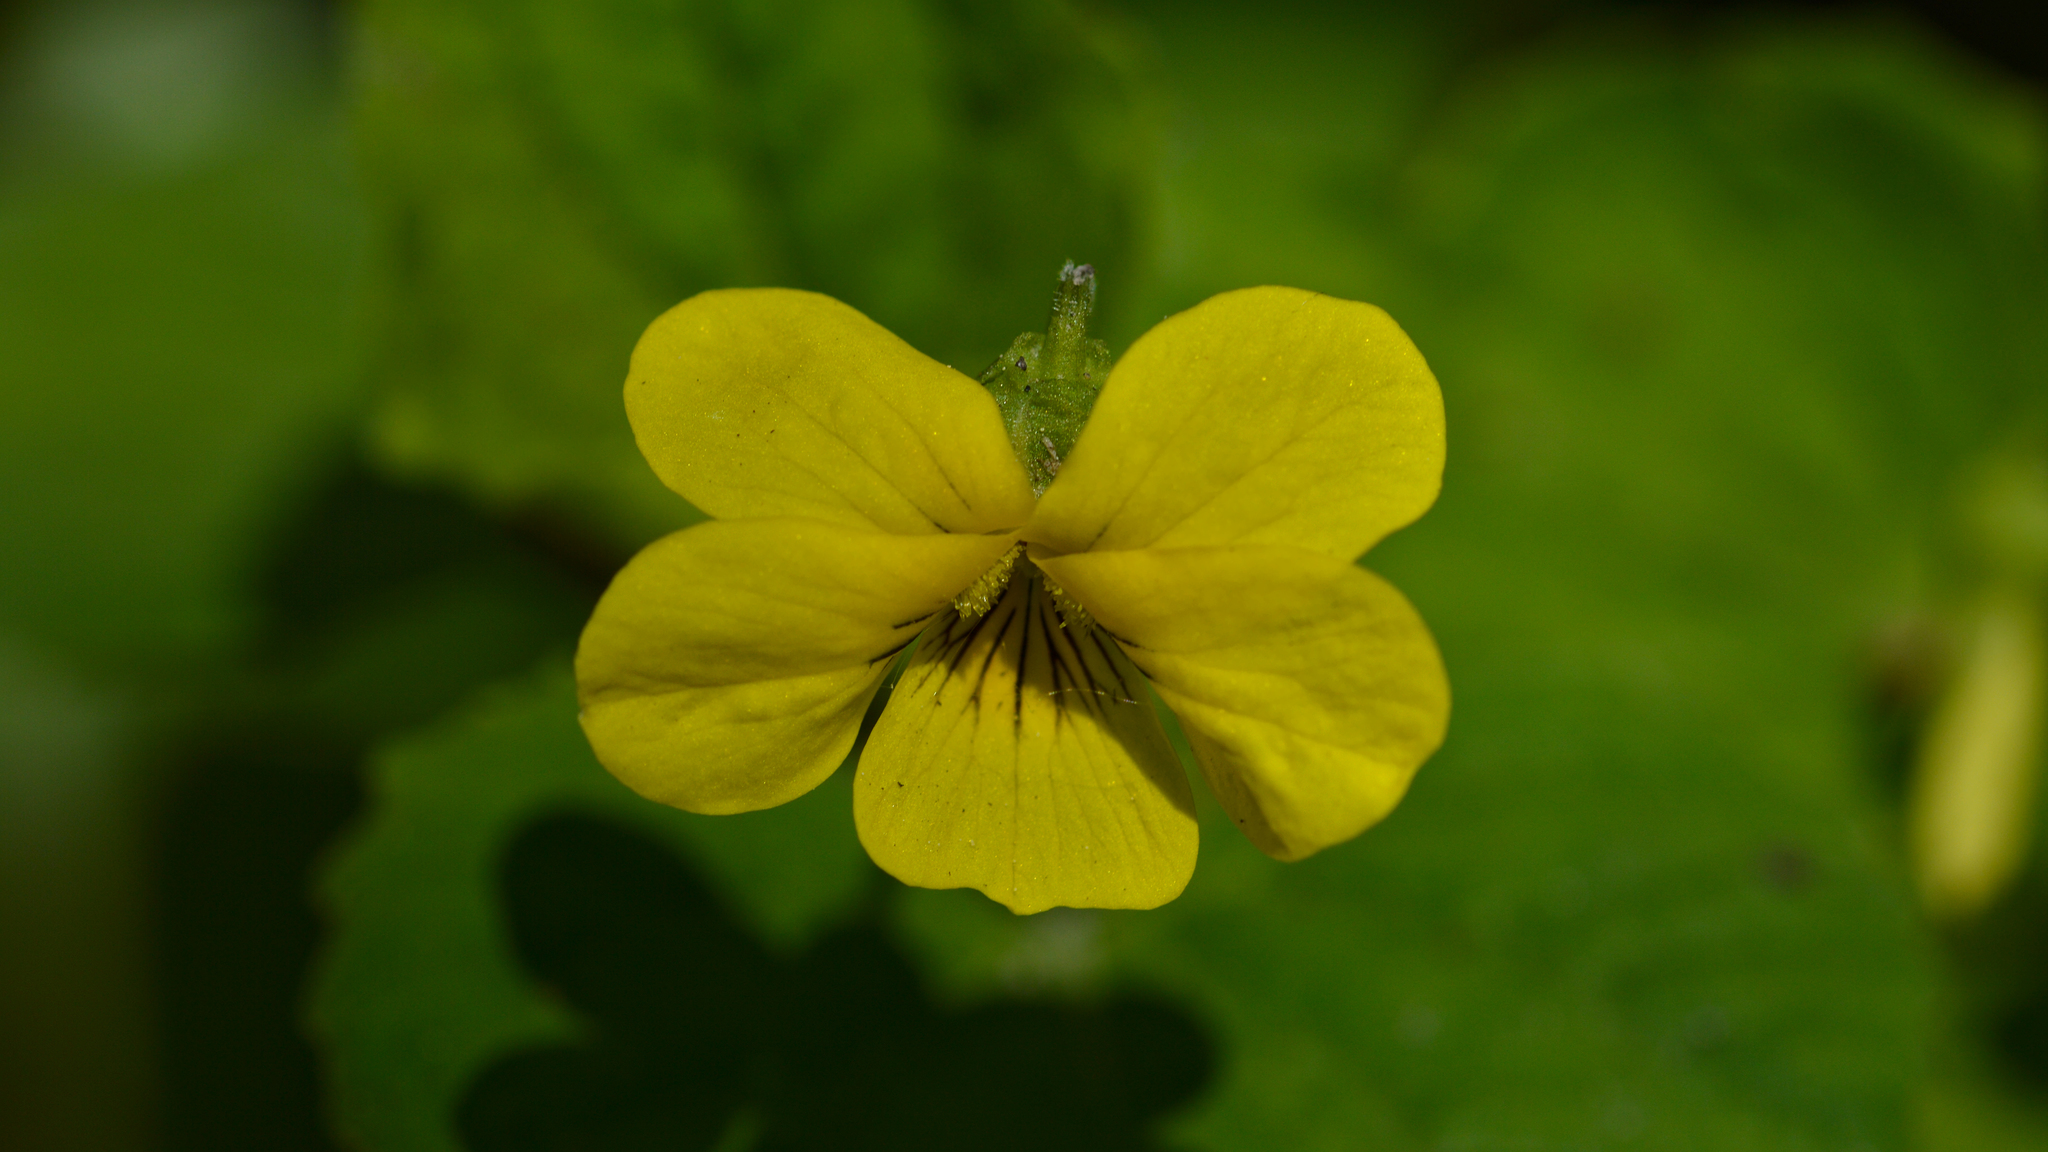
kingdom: Plantae
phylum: Tracheophyta
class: Magnoliopsida
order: Malpighiales
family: Violaceae
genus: Viola
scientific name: Viola eriocarpa
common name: Smooth yellow violet
